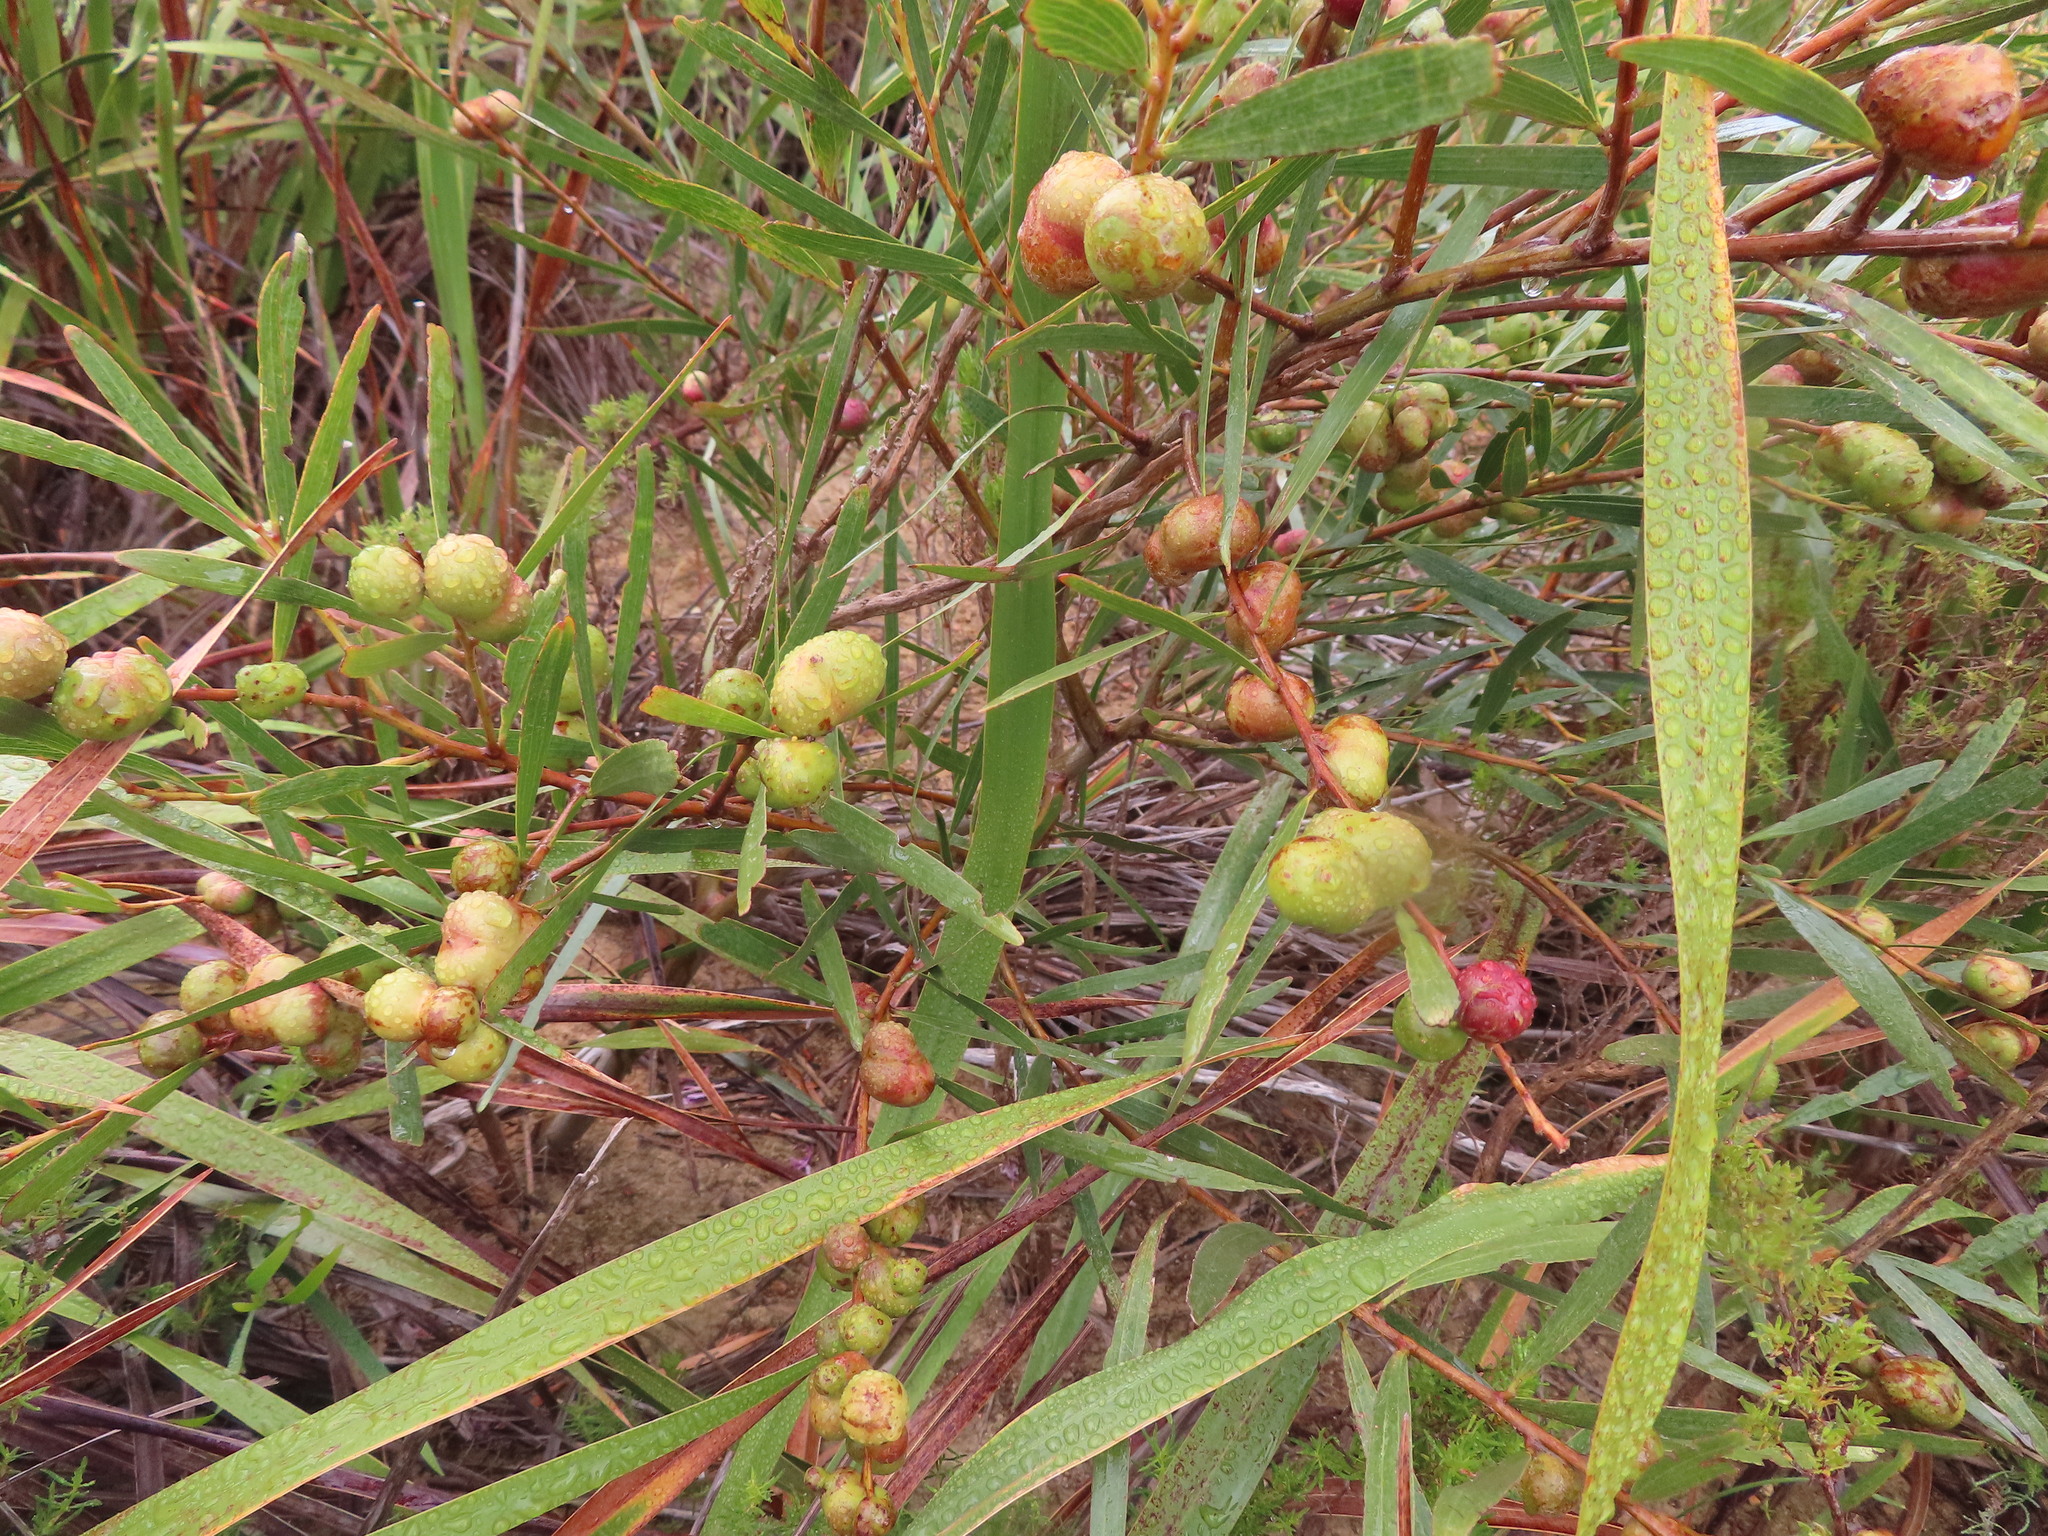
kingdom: Animalia
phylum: Arthropoda
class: Insecta
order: Hymenoptera
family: Pteromalidae
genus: Trichilogaster
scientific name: Trichilogaster acaciaelongifoliae
